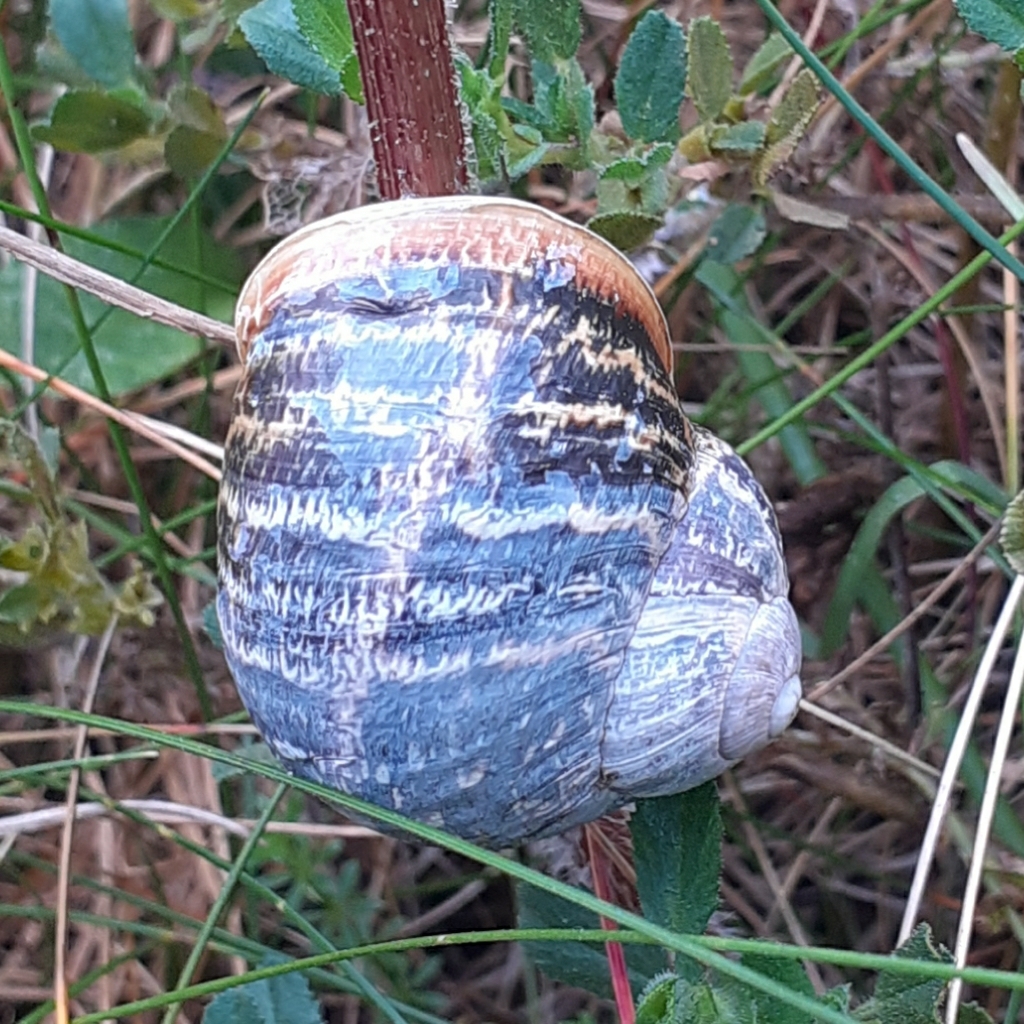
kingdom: Animalia
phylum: Mollusca
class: Gastropoda
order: Stylommatophora
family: Helicidae
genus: Cornu
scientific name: Cornu aspersum
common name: Brown garden snail
